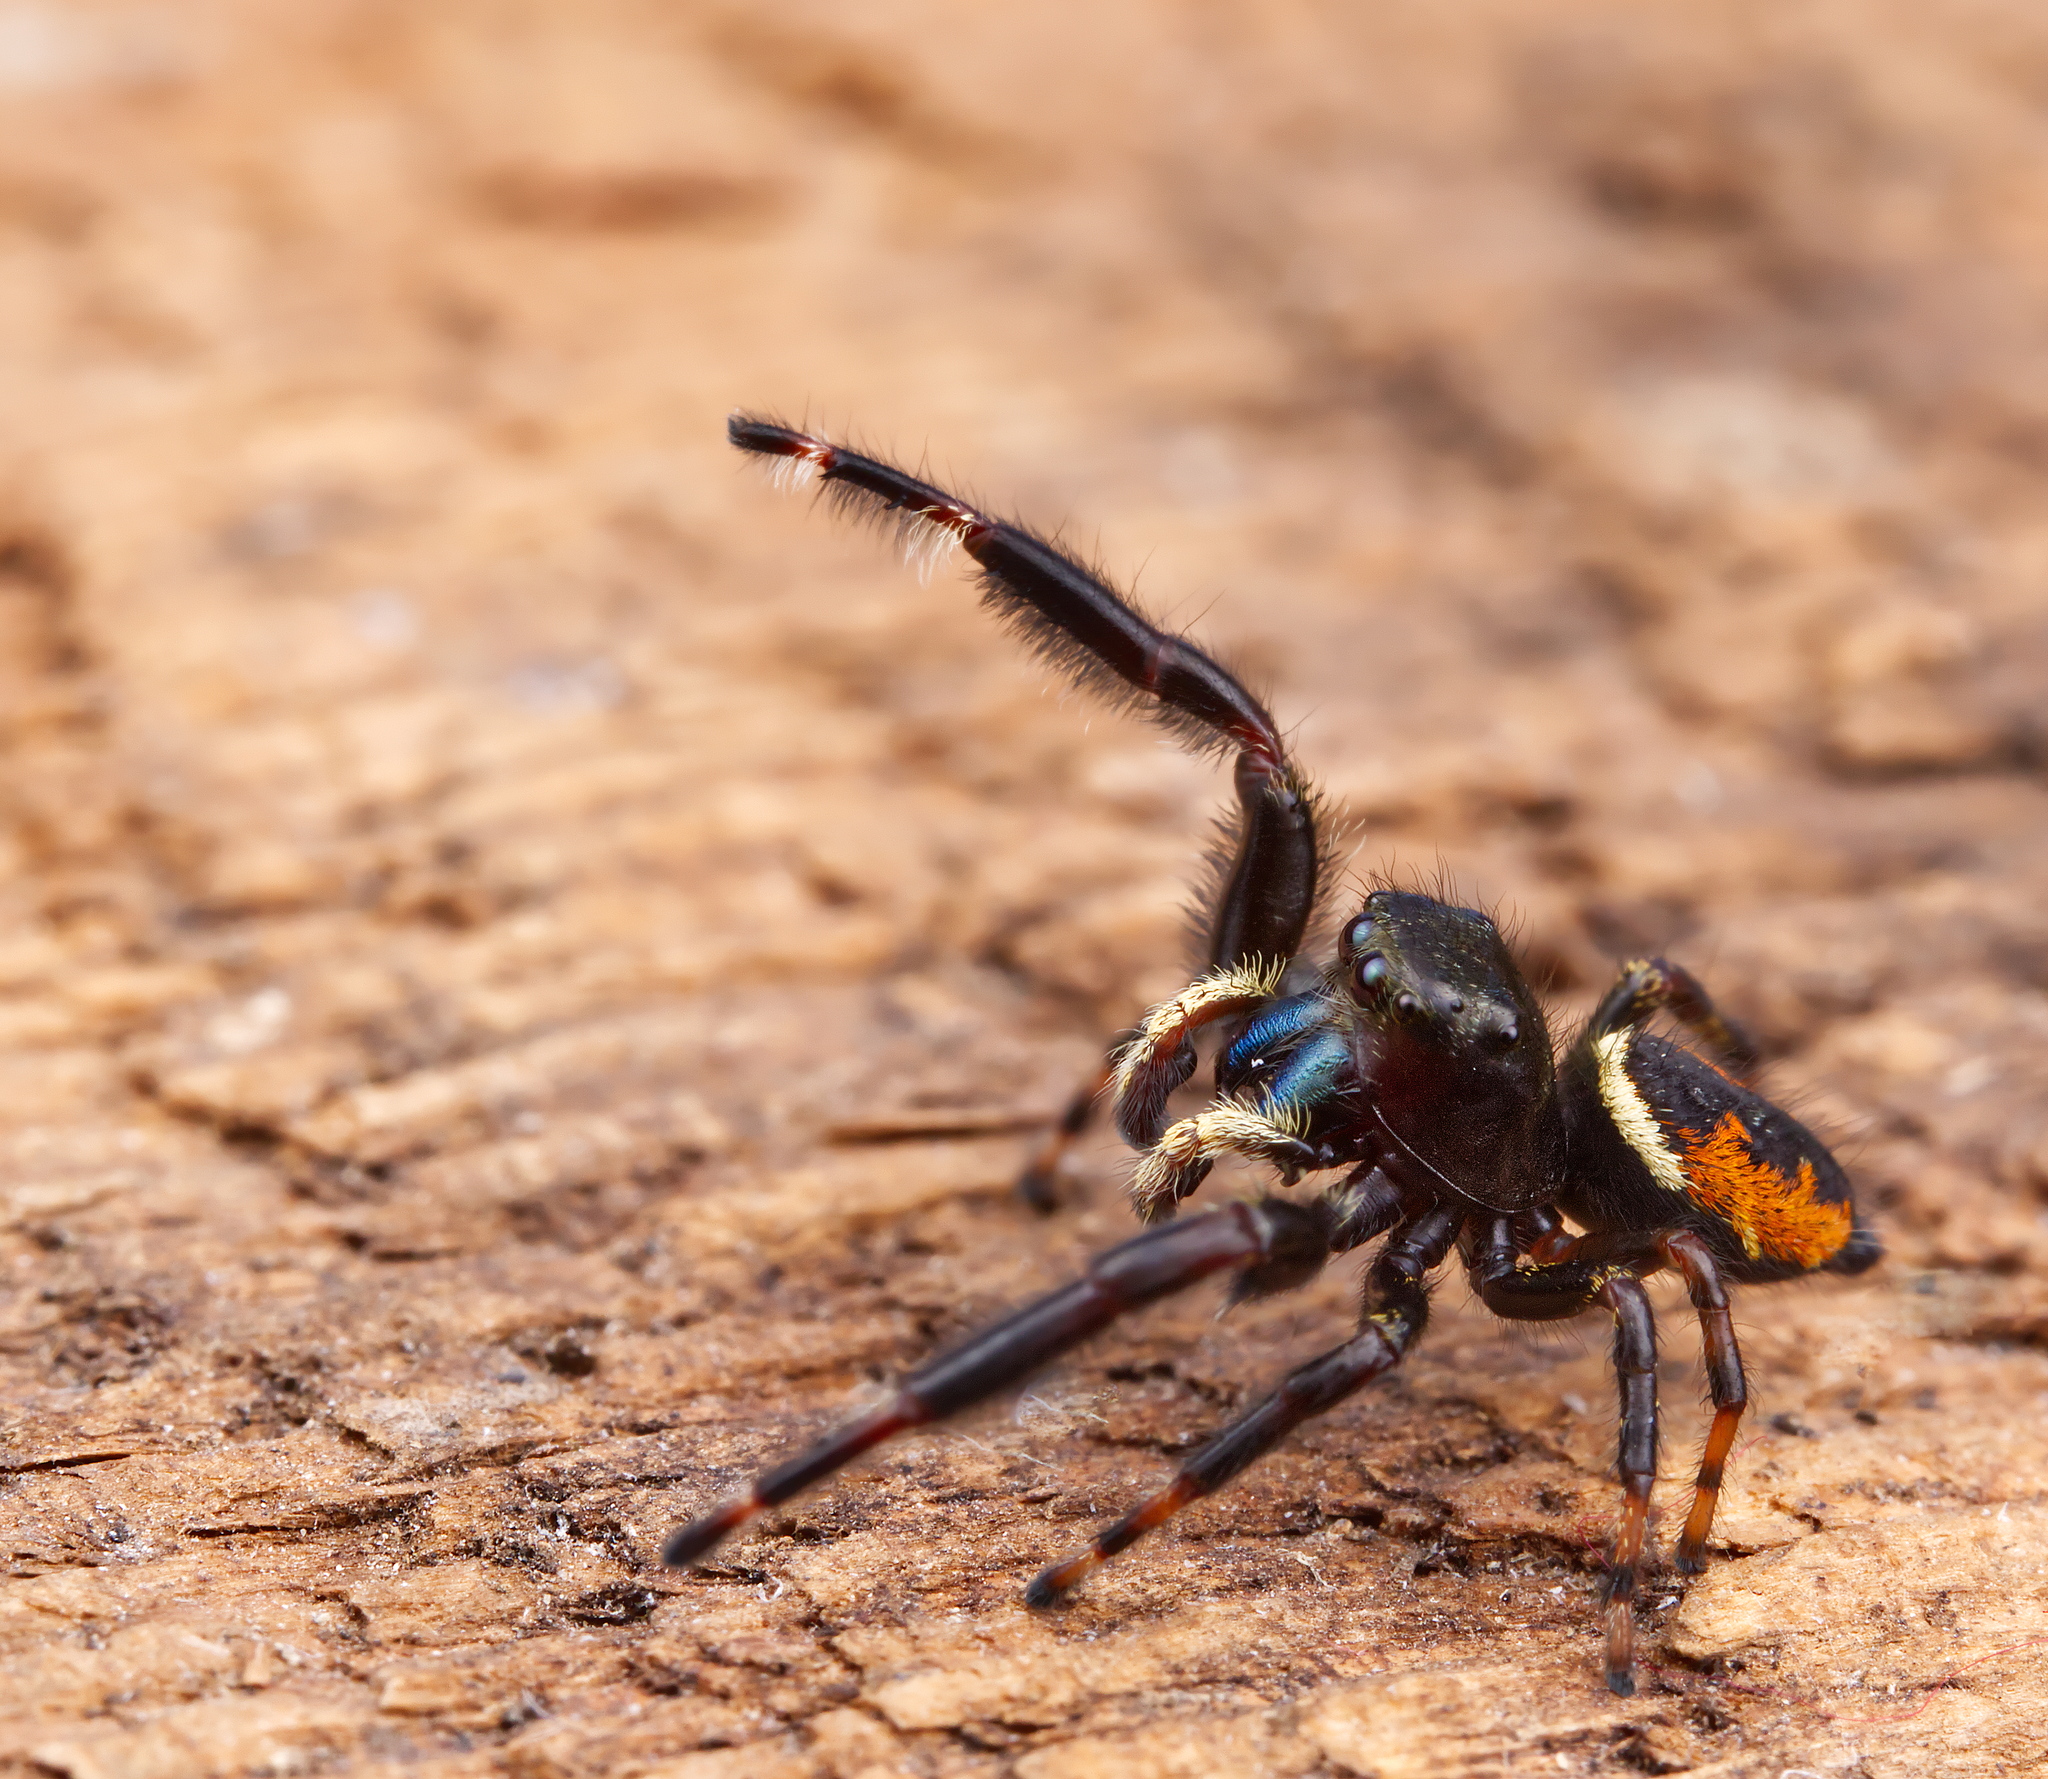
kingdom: Animalia
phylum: Arthropoda
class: Arachnida
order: Araneae
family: Salticidae
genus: Phidippus
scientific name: Phidippus clarus
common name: Brilliant jumping spider
